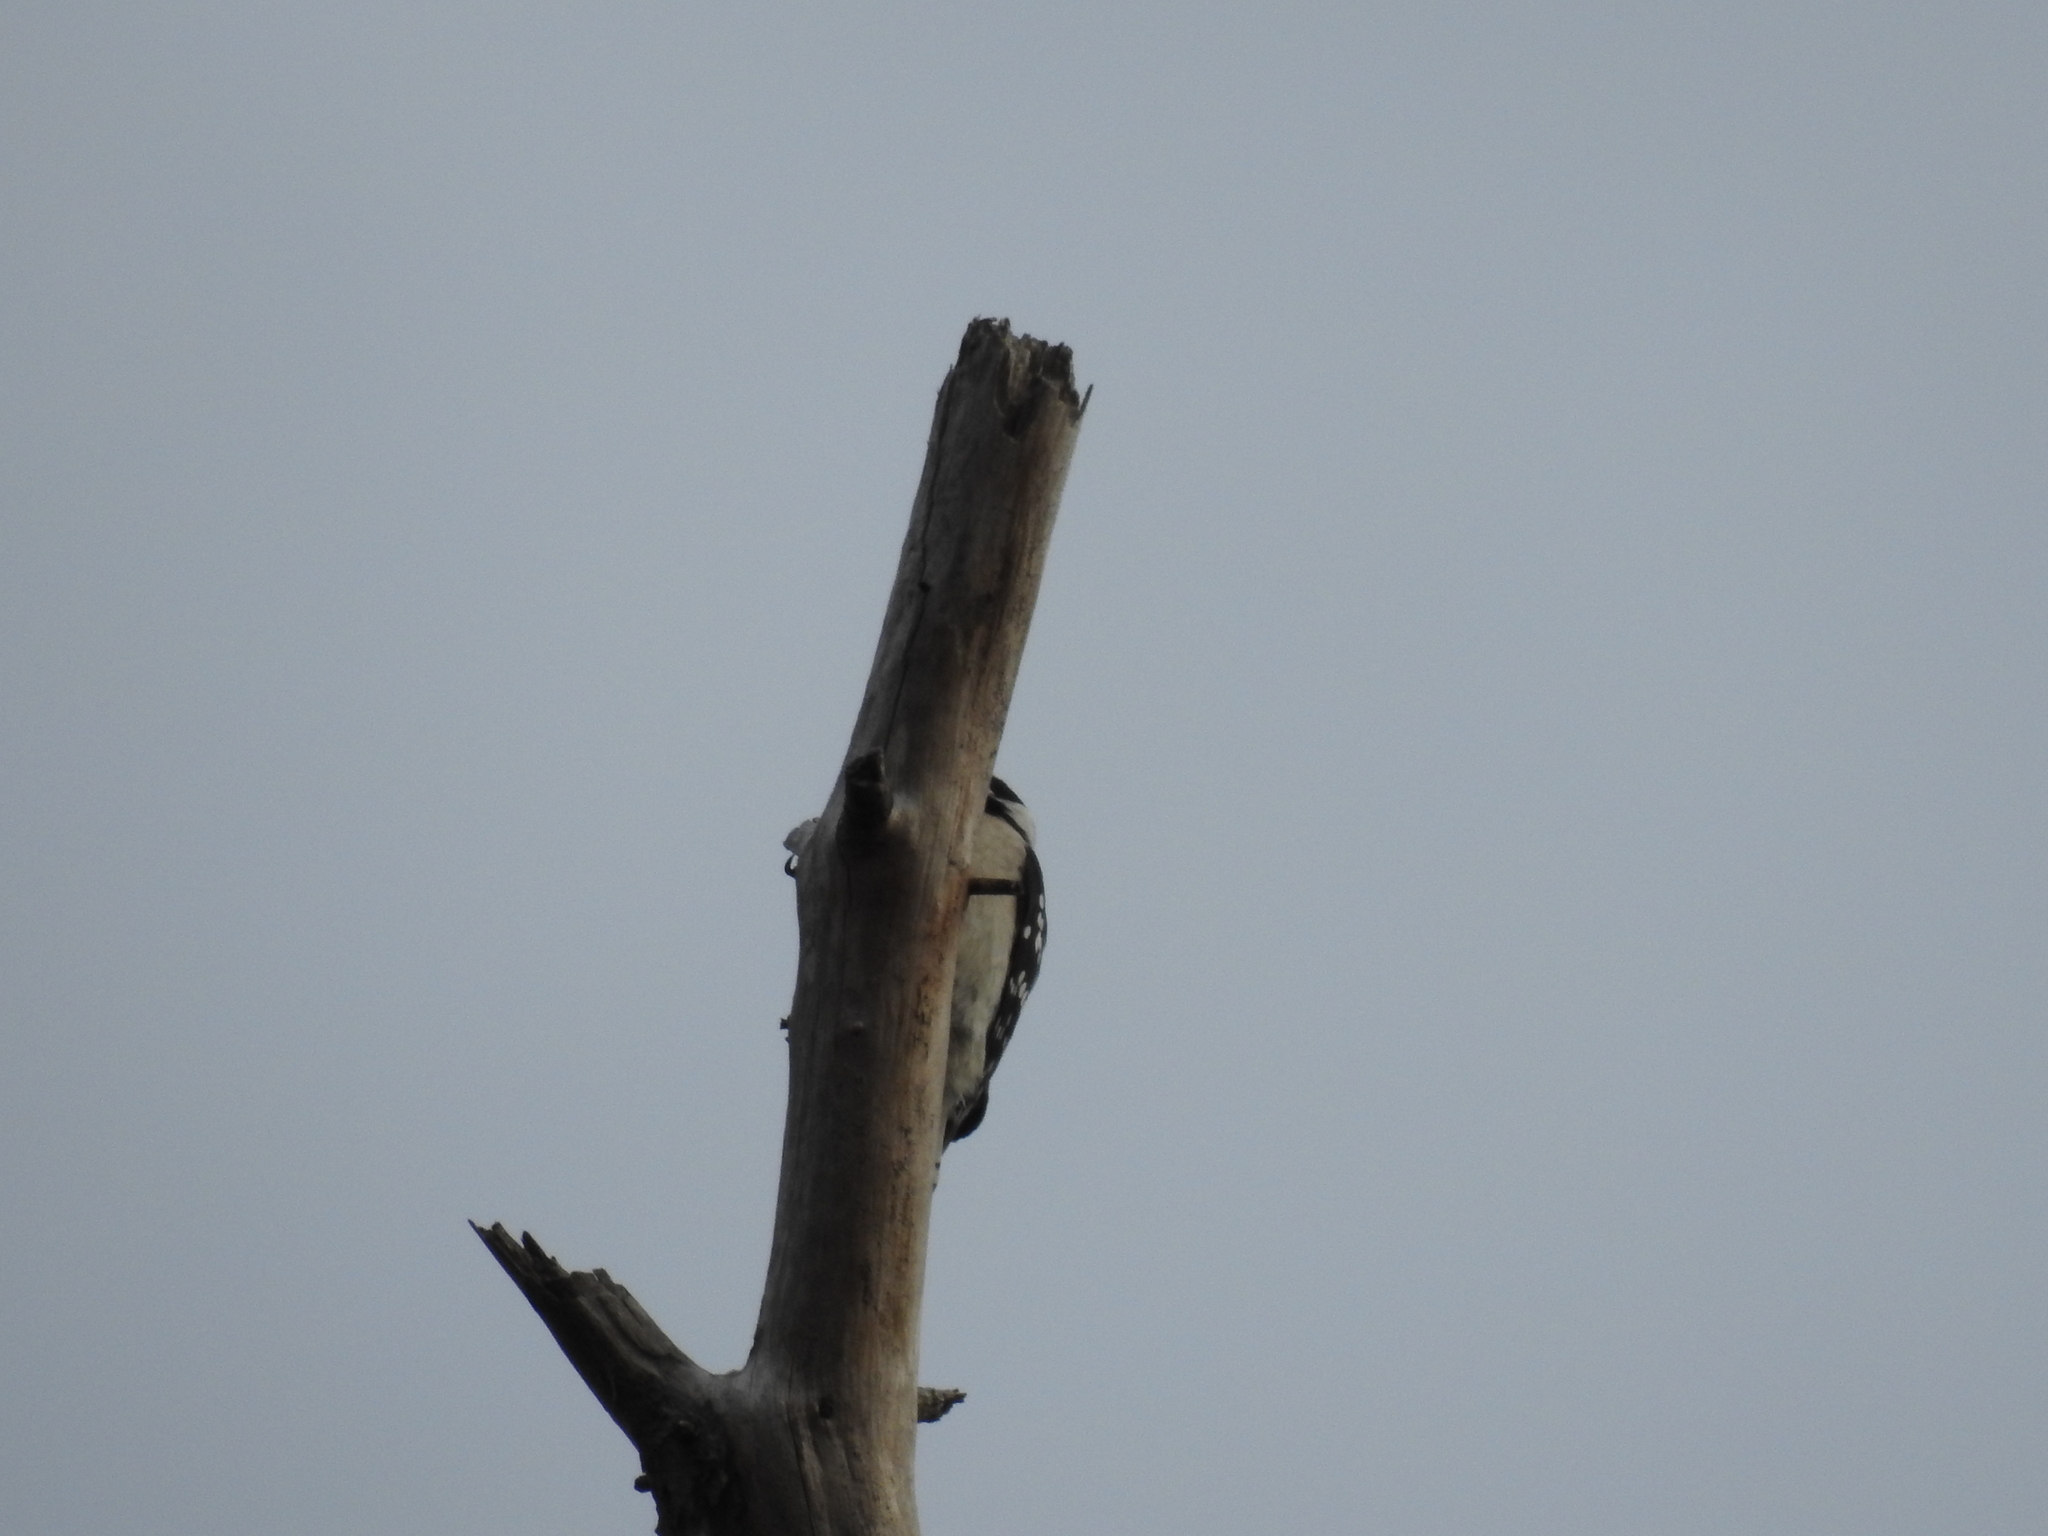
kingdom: Animalia
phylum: Chordata
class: Aves
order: Piciformes
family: Picidae
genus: Dryobates
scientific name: Dryobates pubescens
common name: Downy woodpecker
